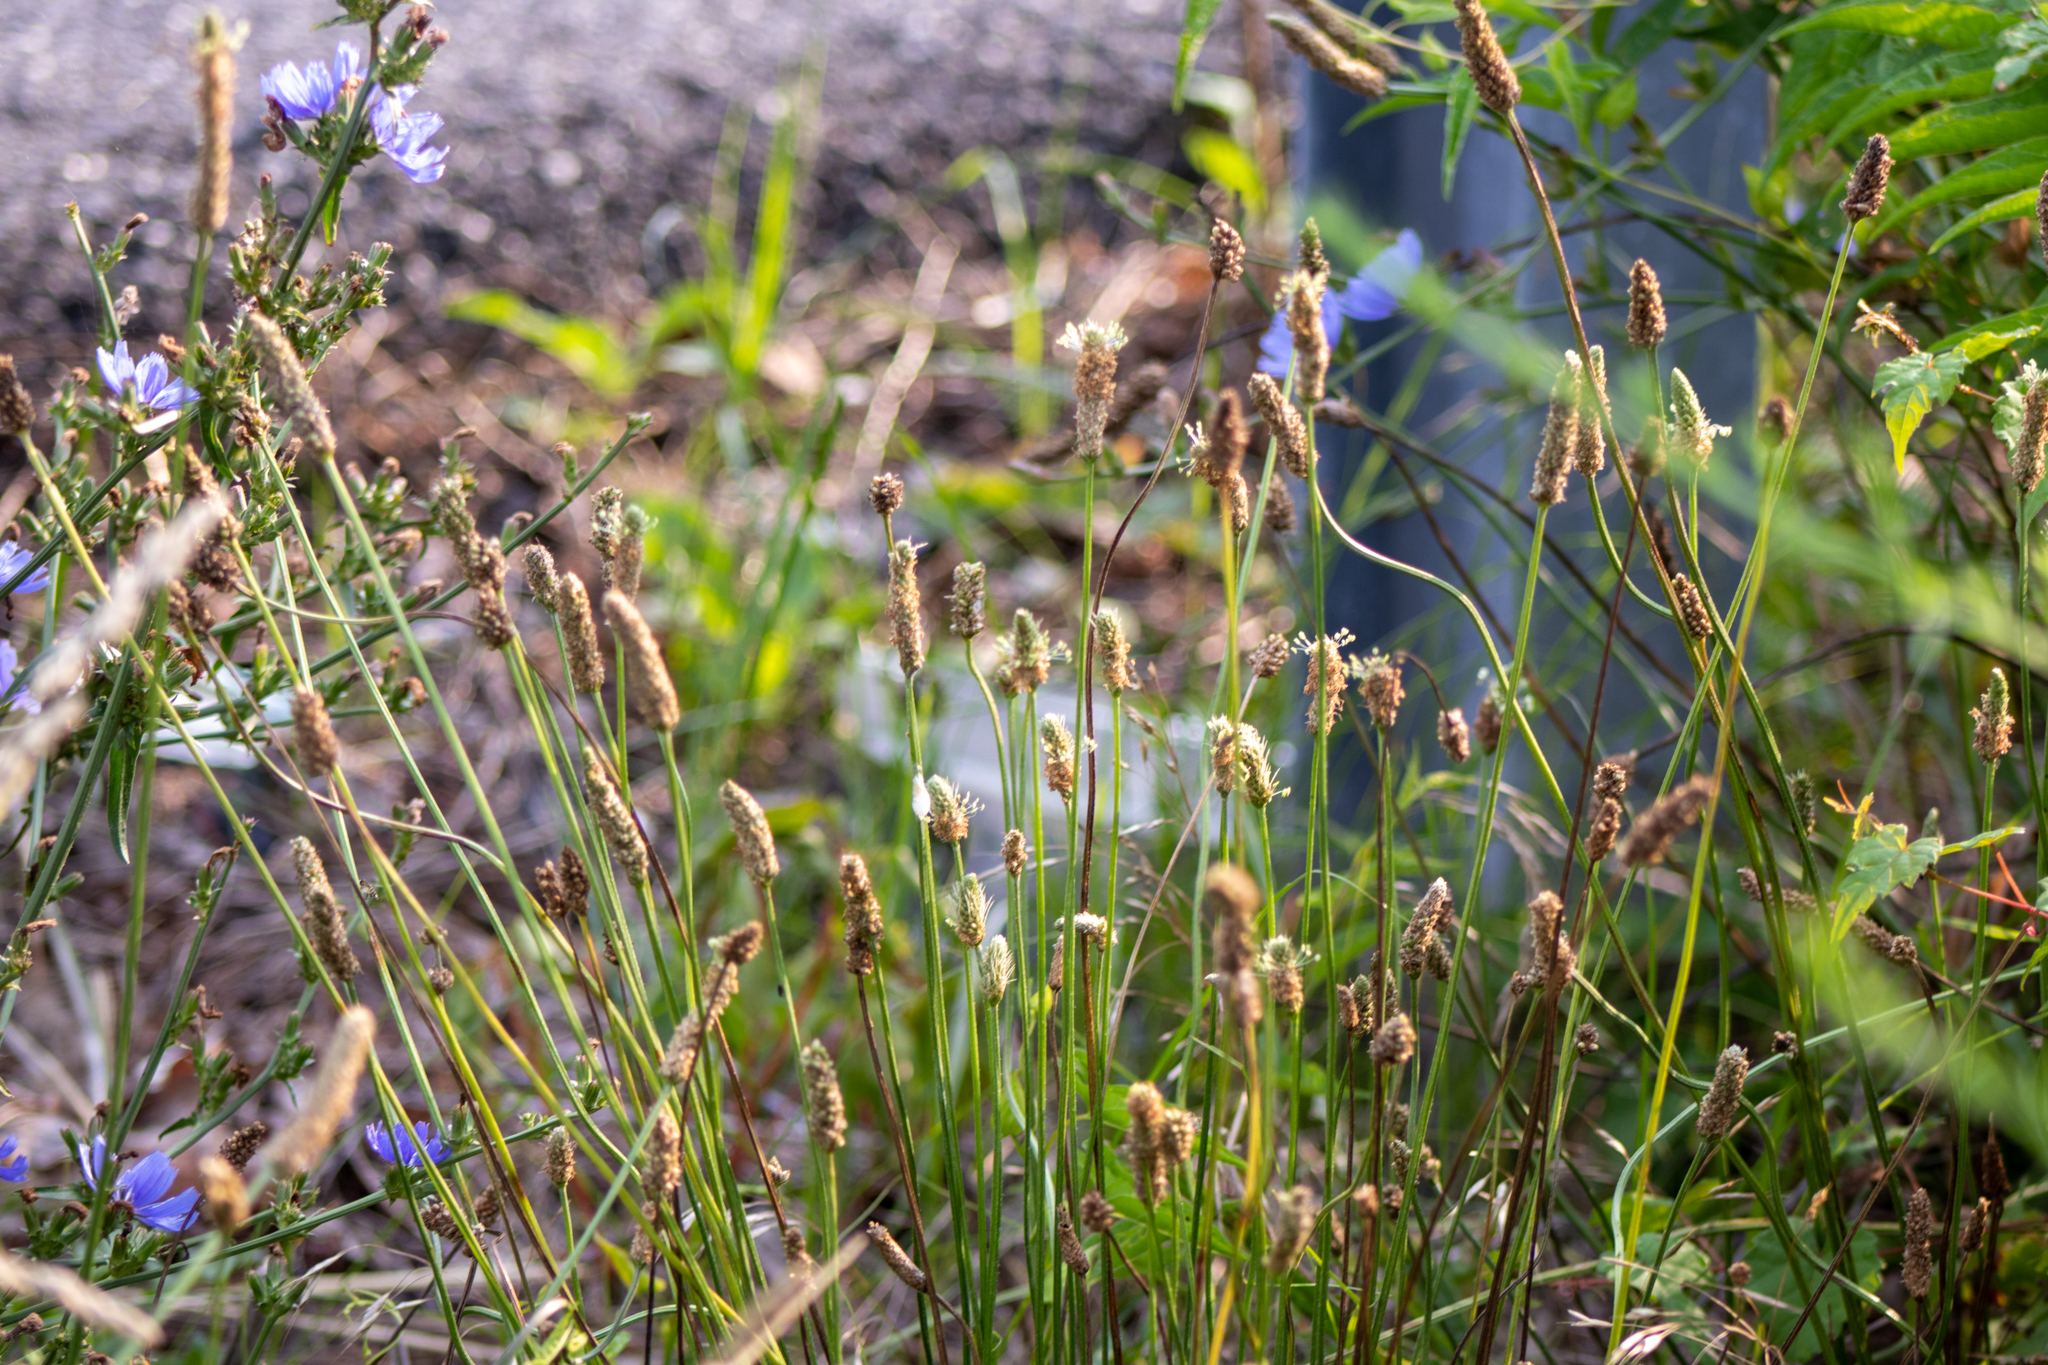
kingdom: Plantae
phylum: Tracheophyta
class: Magnoliopsida
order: Lamiales
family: Plantaginaceae
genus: Plantago
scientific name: Plantago lanceolata
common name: Ribwort plantain
